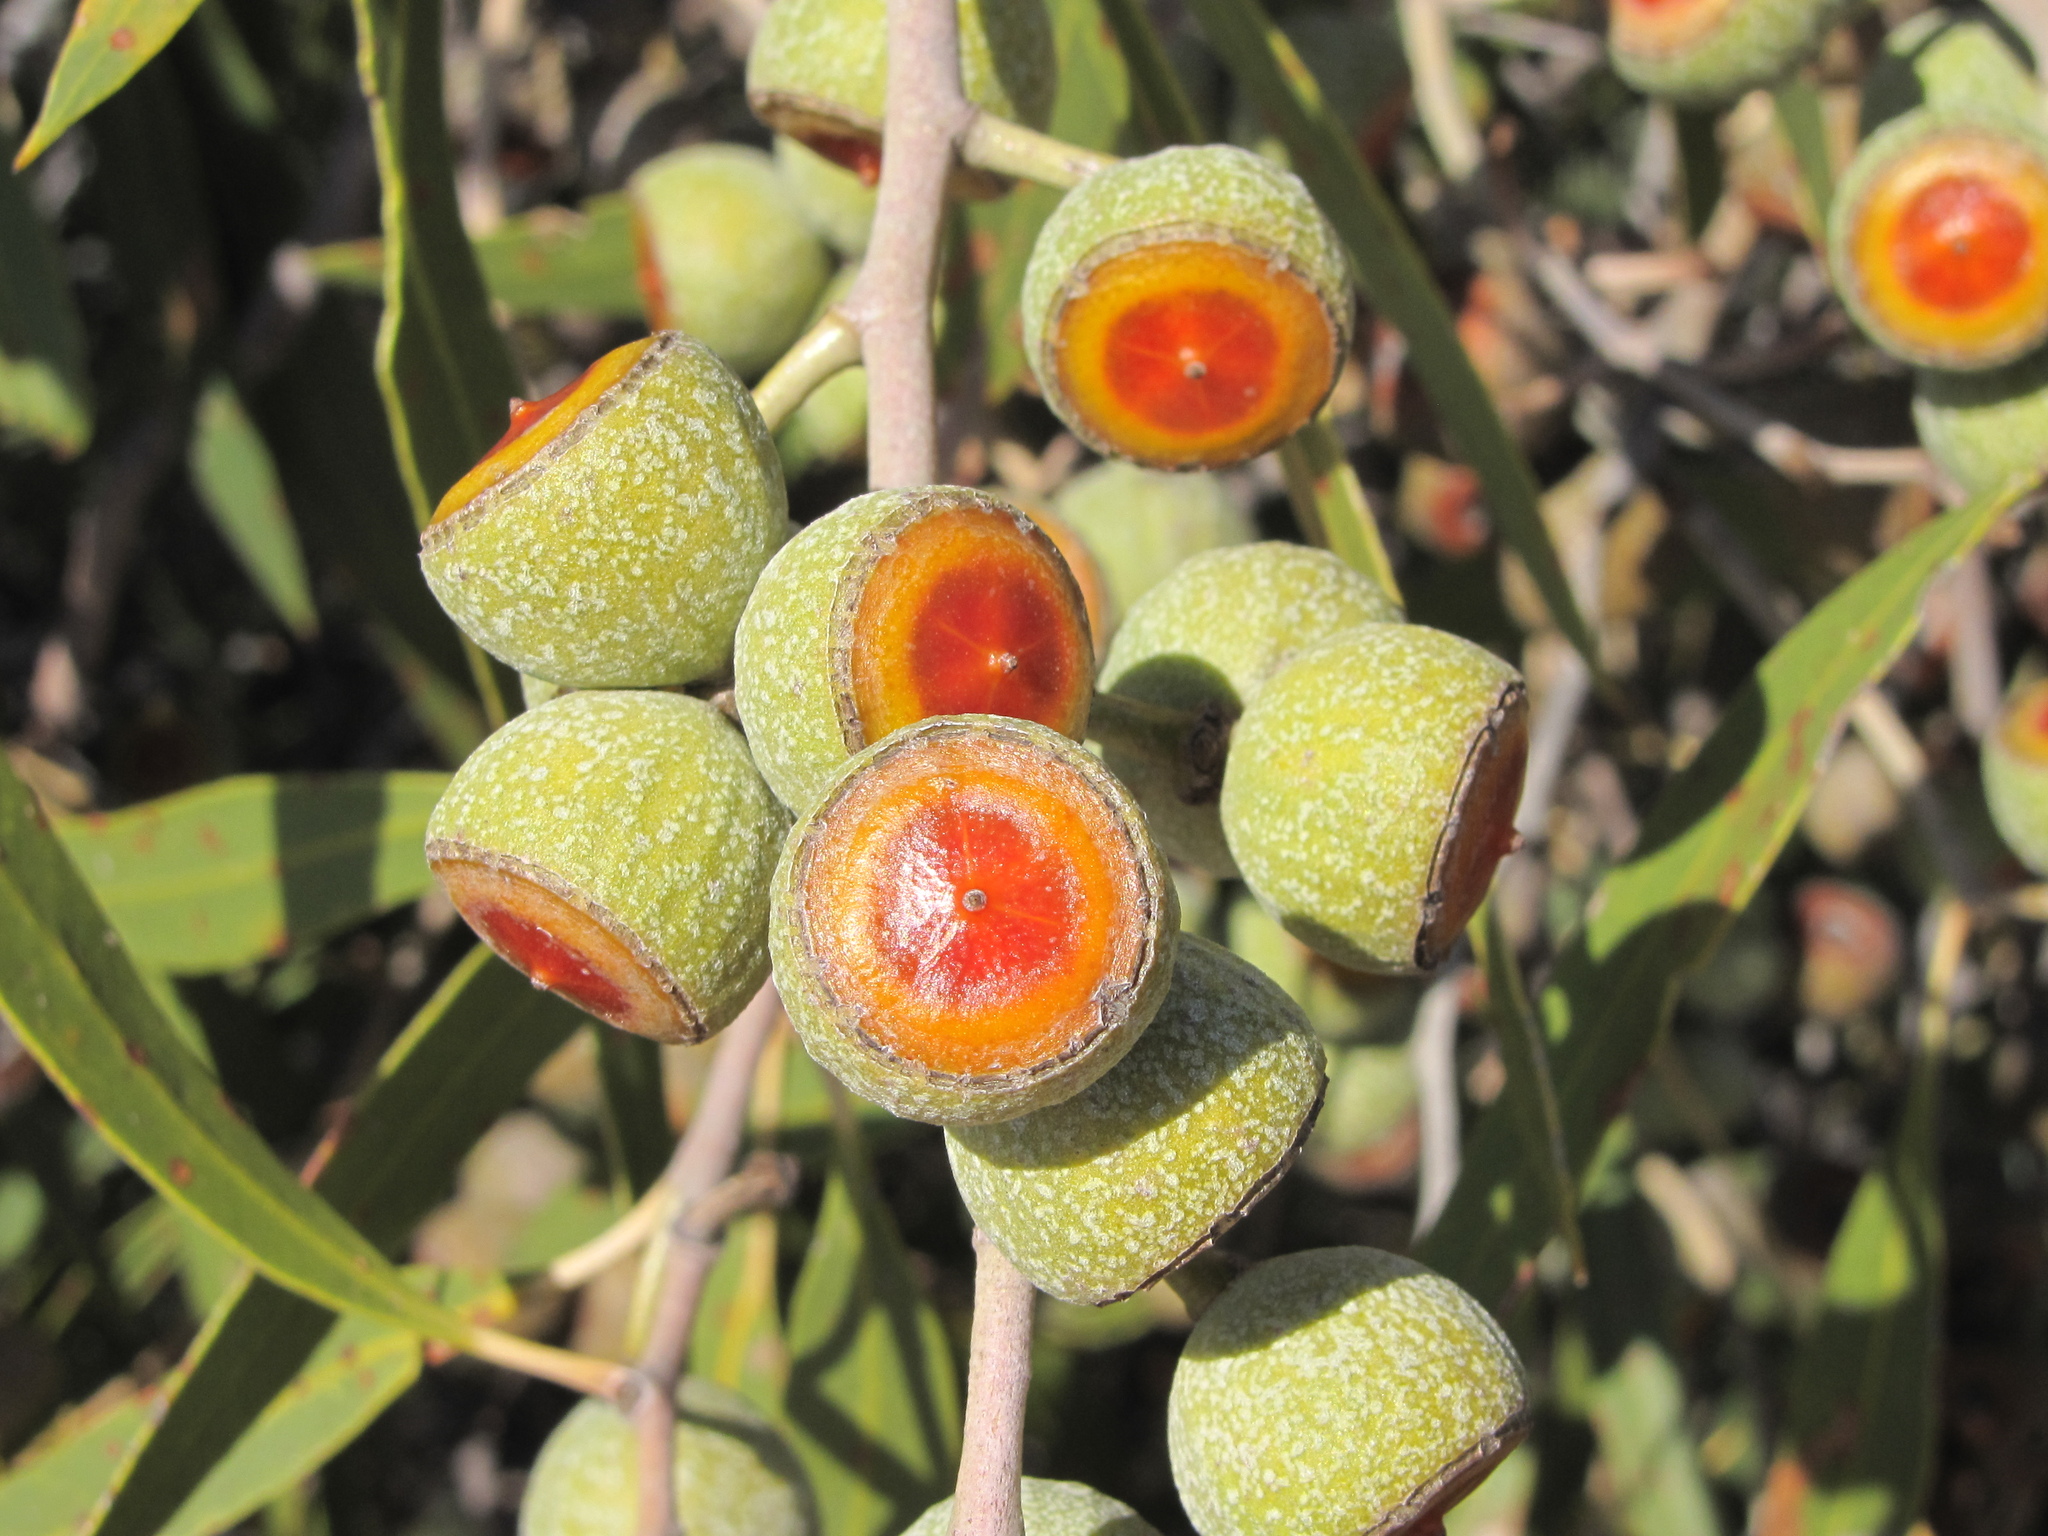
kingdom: Plantae
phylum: Tracheophyta
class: Magnoliopsida
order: Myrtales
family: Myrtaceae
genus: Eucalyptus
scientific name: Eucalyptus todtiana
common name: Coastal blackbutt
